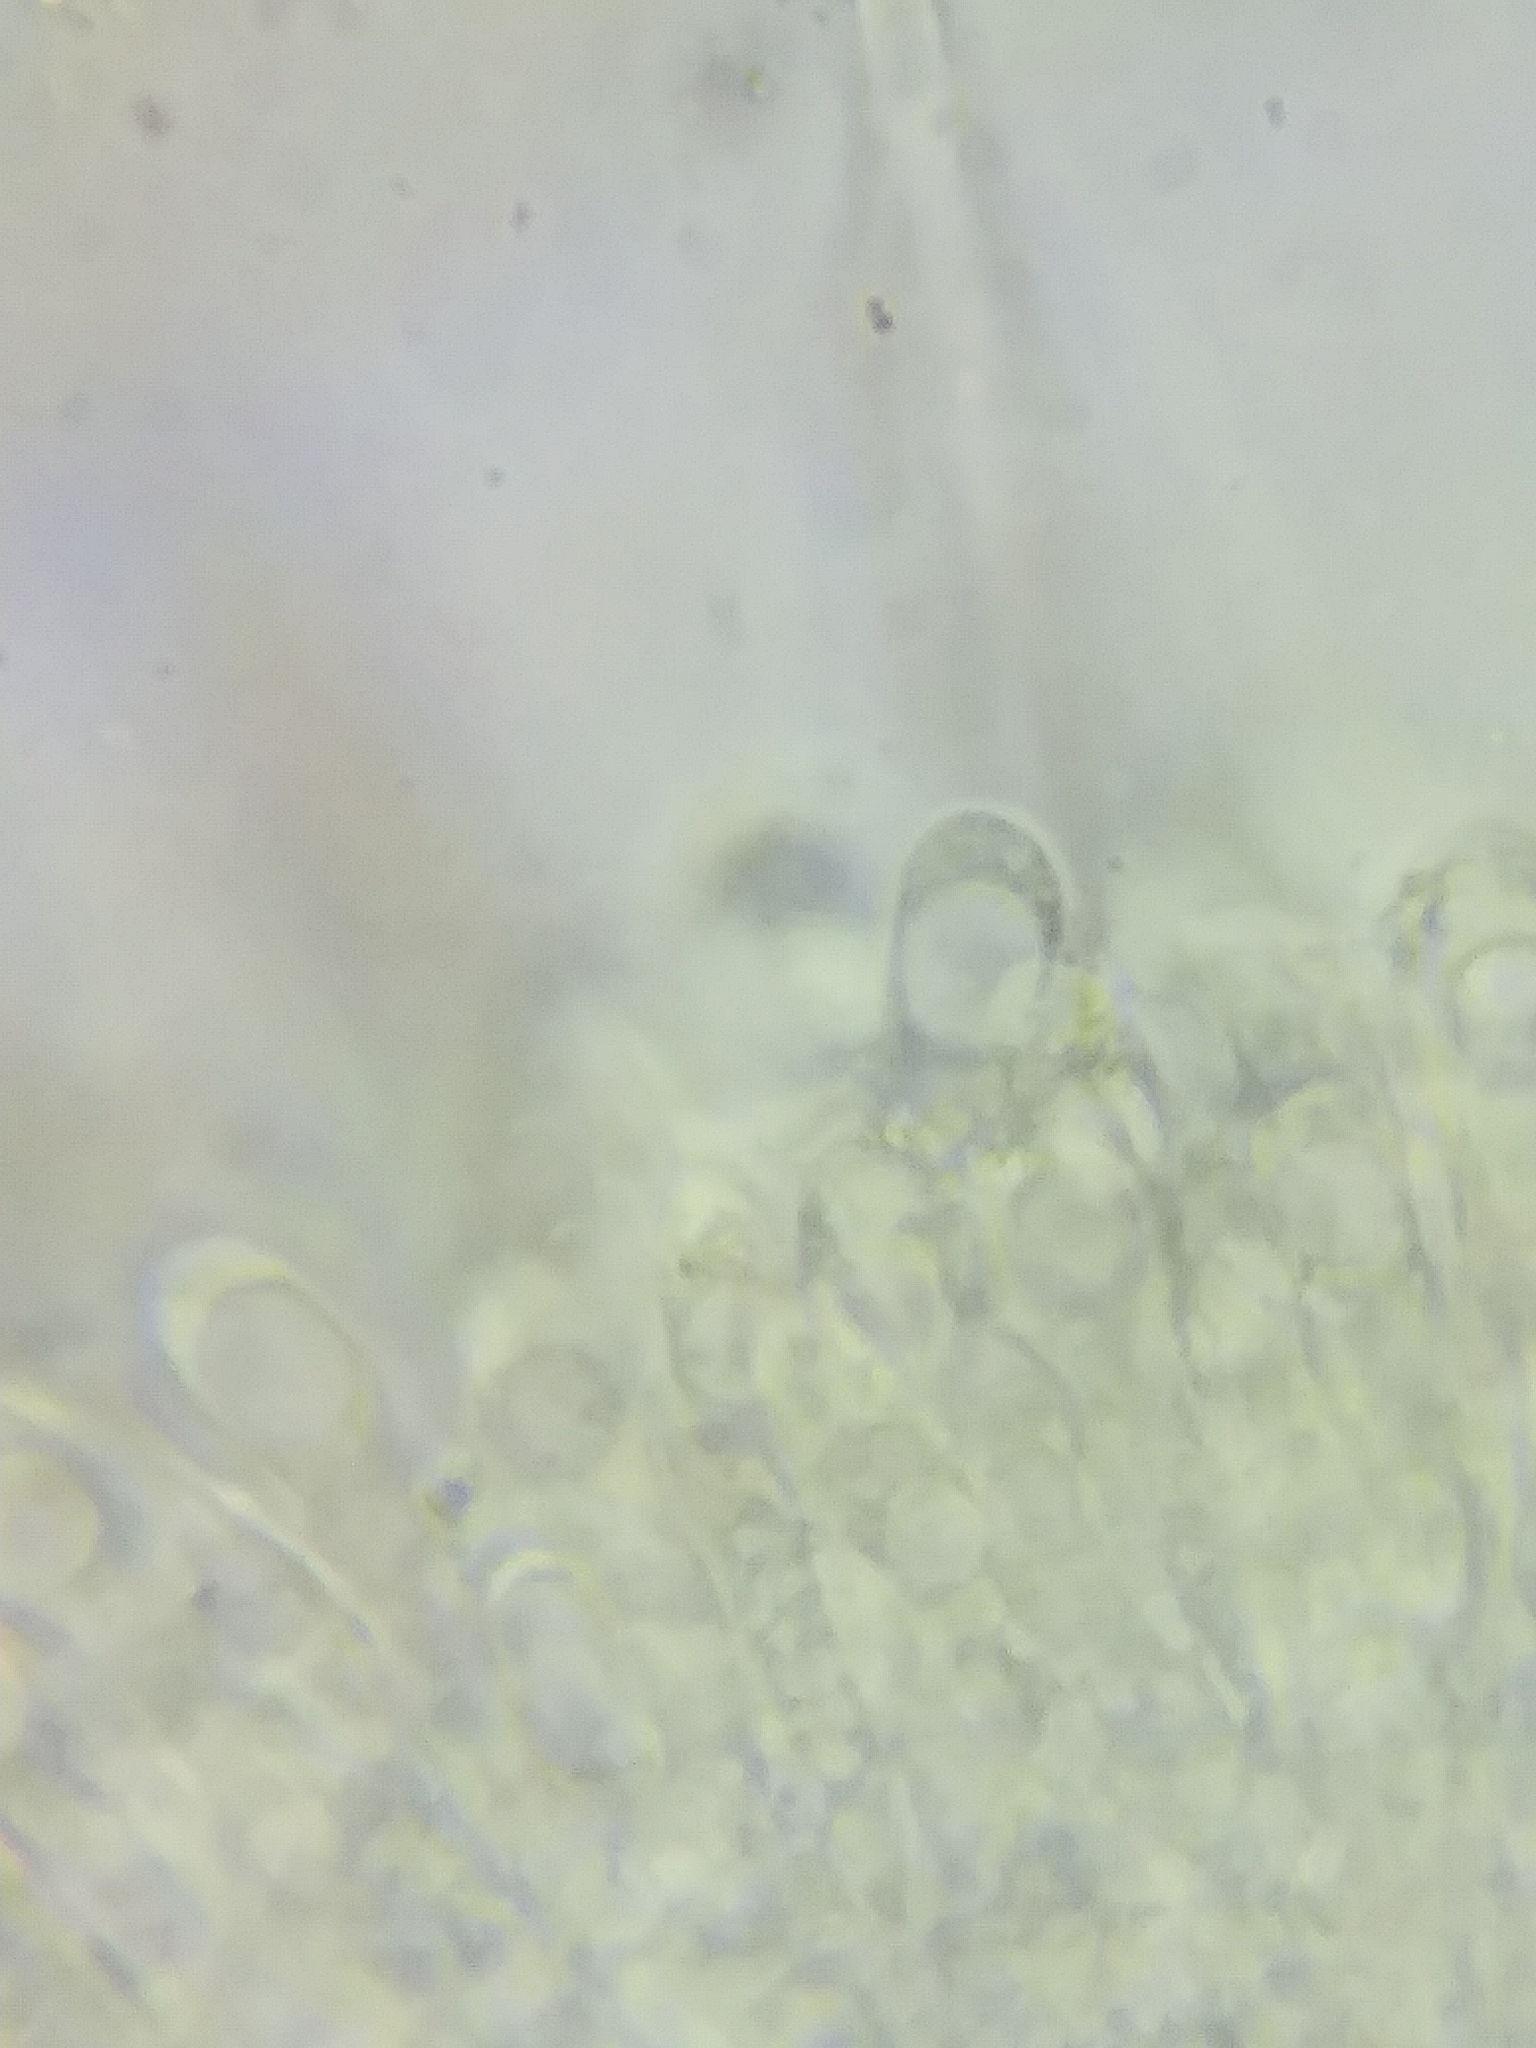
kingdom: Fungi
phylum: Basidiomycota
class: Agaricomycetes
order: Agaricales
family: Omphalotaceae
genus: Gymnopus
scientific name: Gymnopus lachnophyllus
